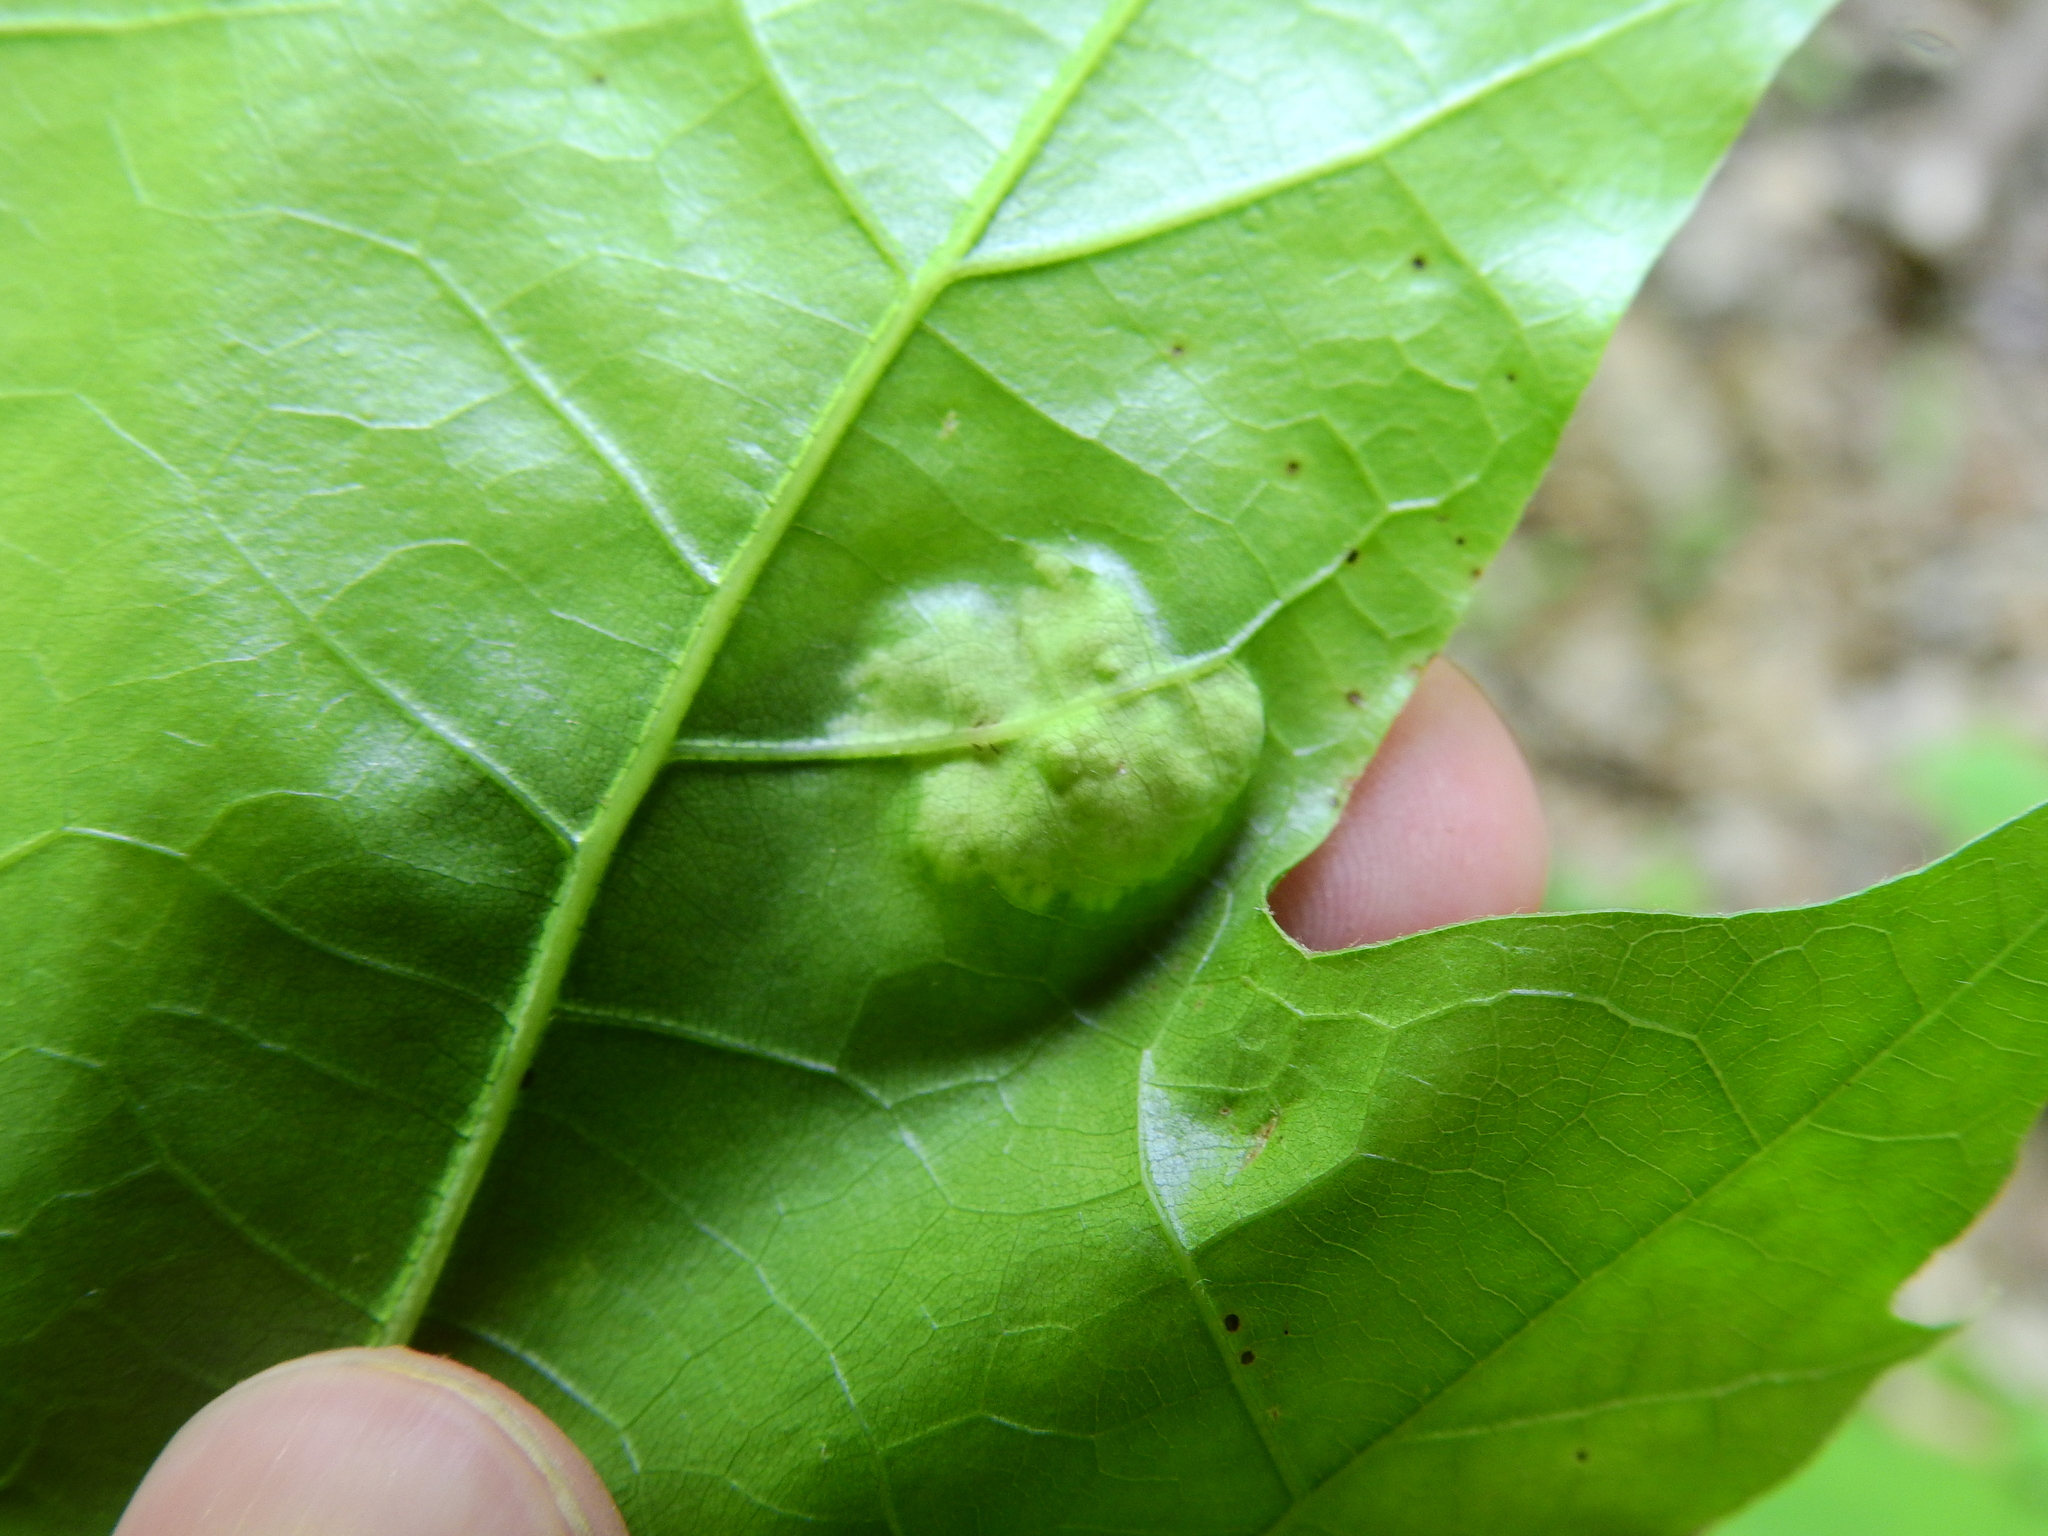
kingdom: Fungi
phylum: Ascomycota
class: Taphrinomycetes
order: Taphrinales
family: Taphrinaceae
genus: Taphrina
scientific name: Taphrina caerulescens
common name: Oak leaf blister
